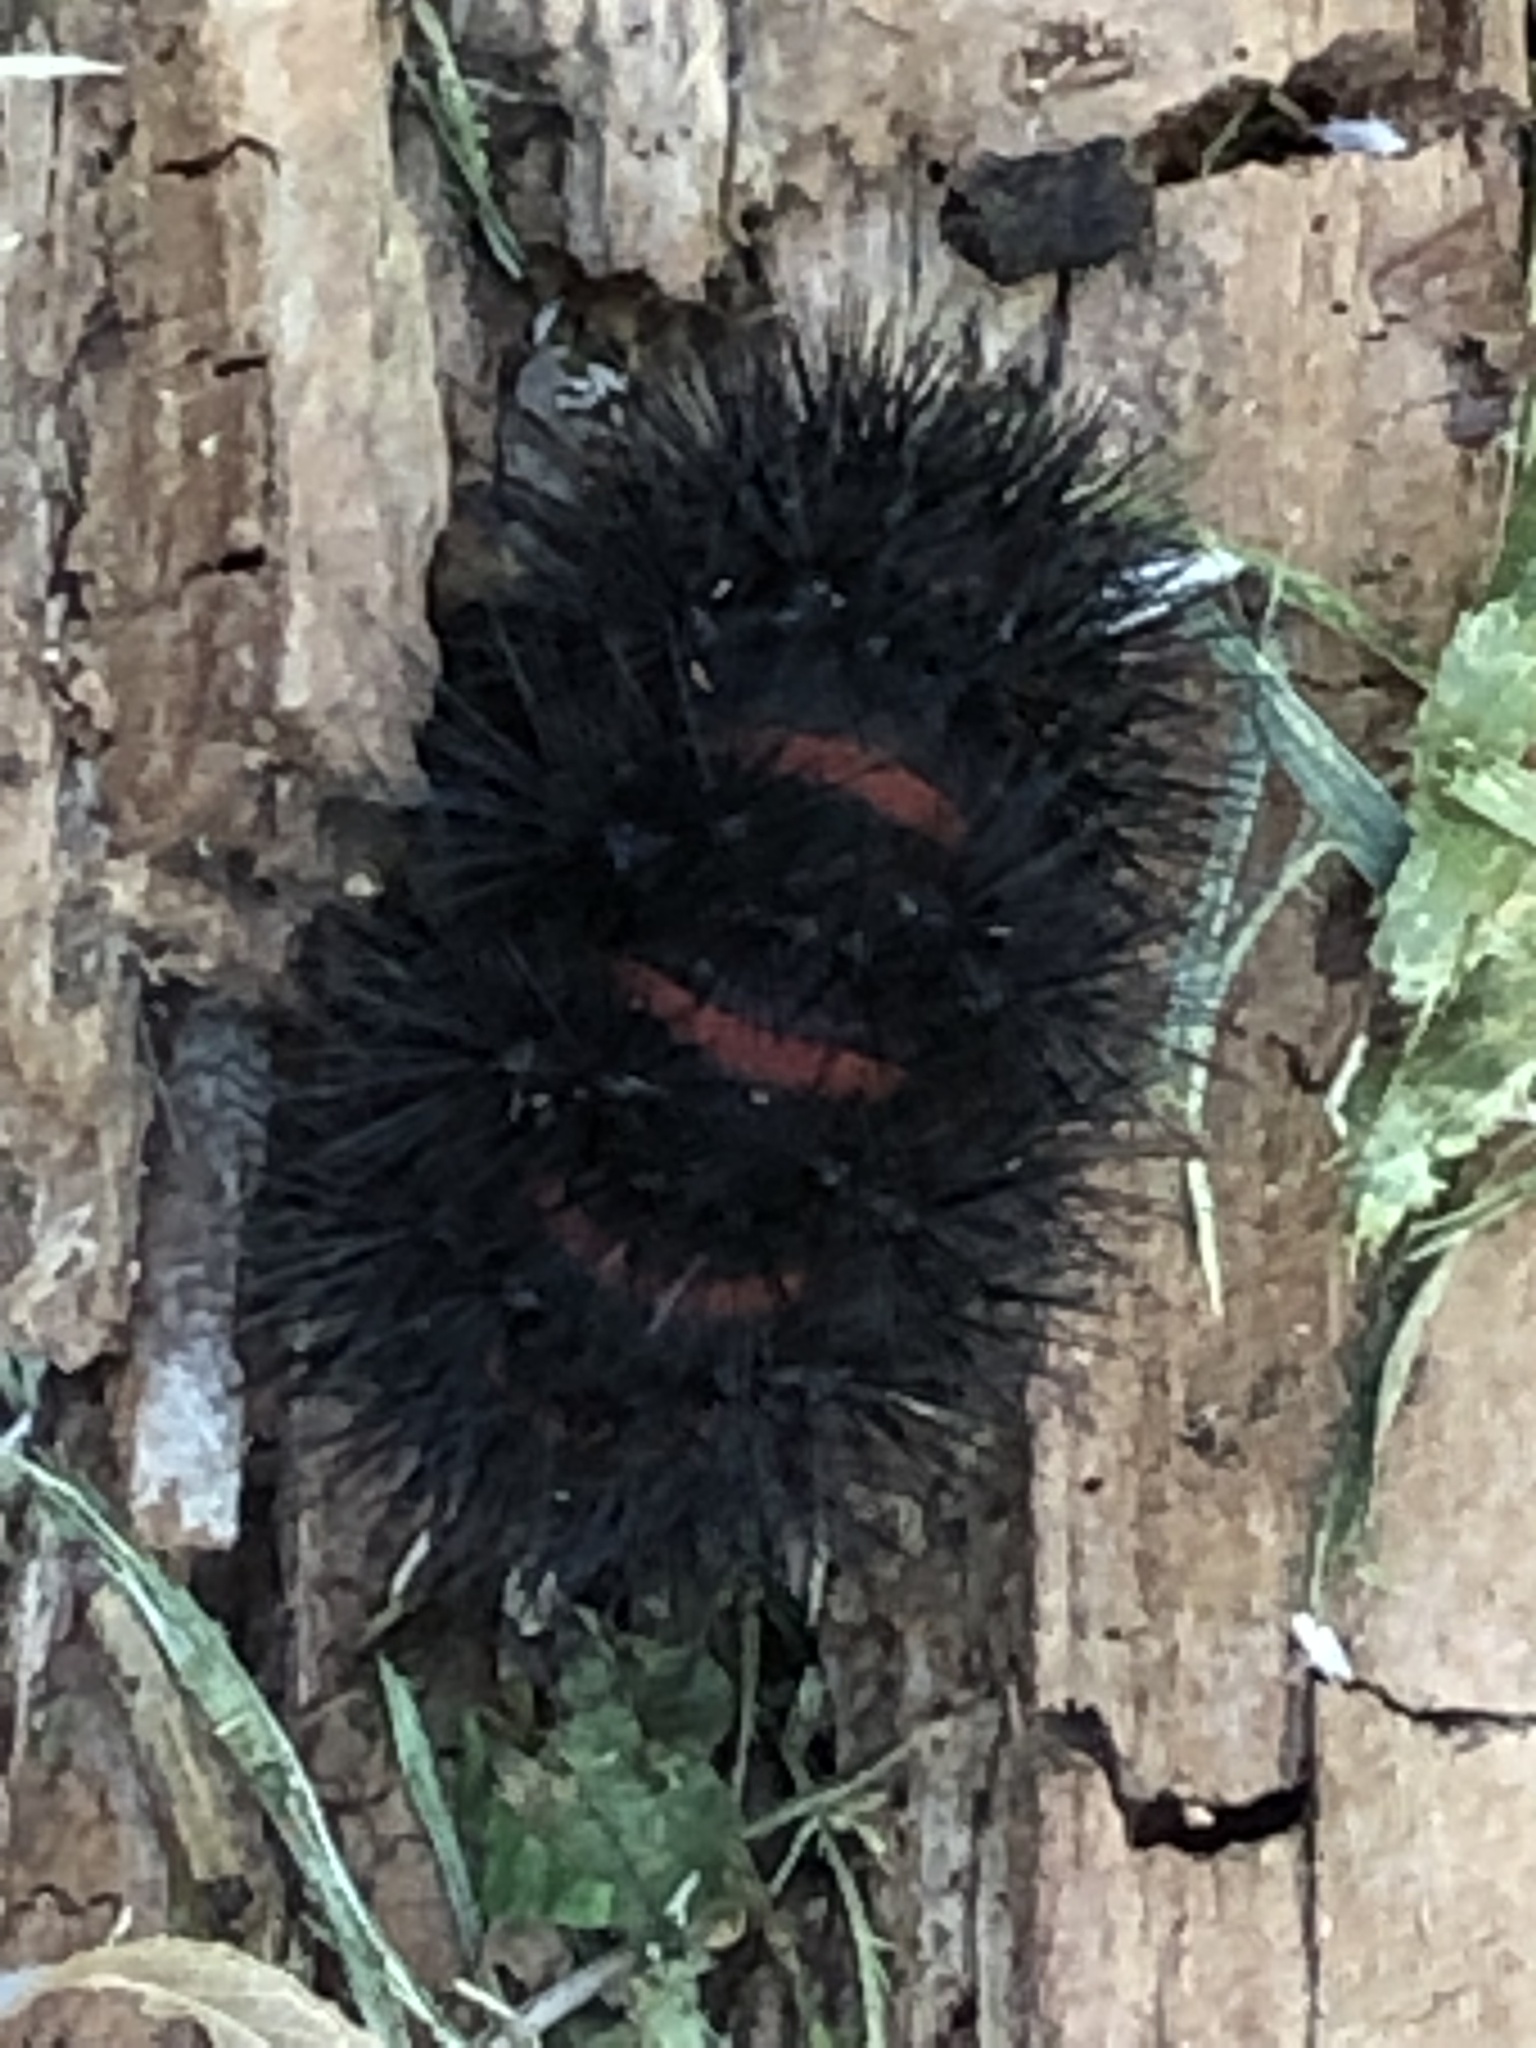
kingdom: Animalia
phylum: Arthropoda
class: Insecta
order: Lepidoptera
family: Erebidae
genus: Hypercompe
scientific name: Hypercompe scribonia
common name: Giant leopard moth
